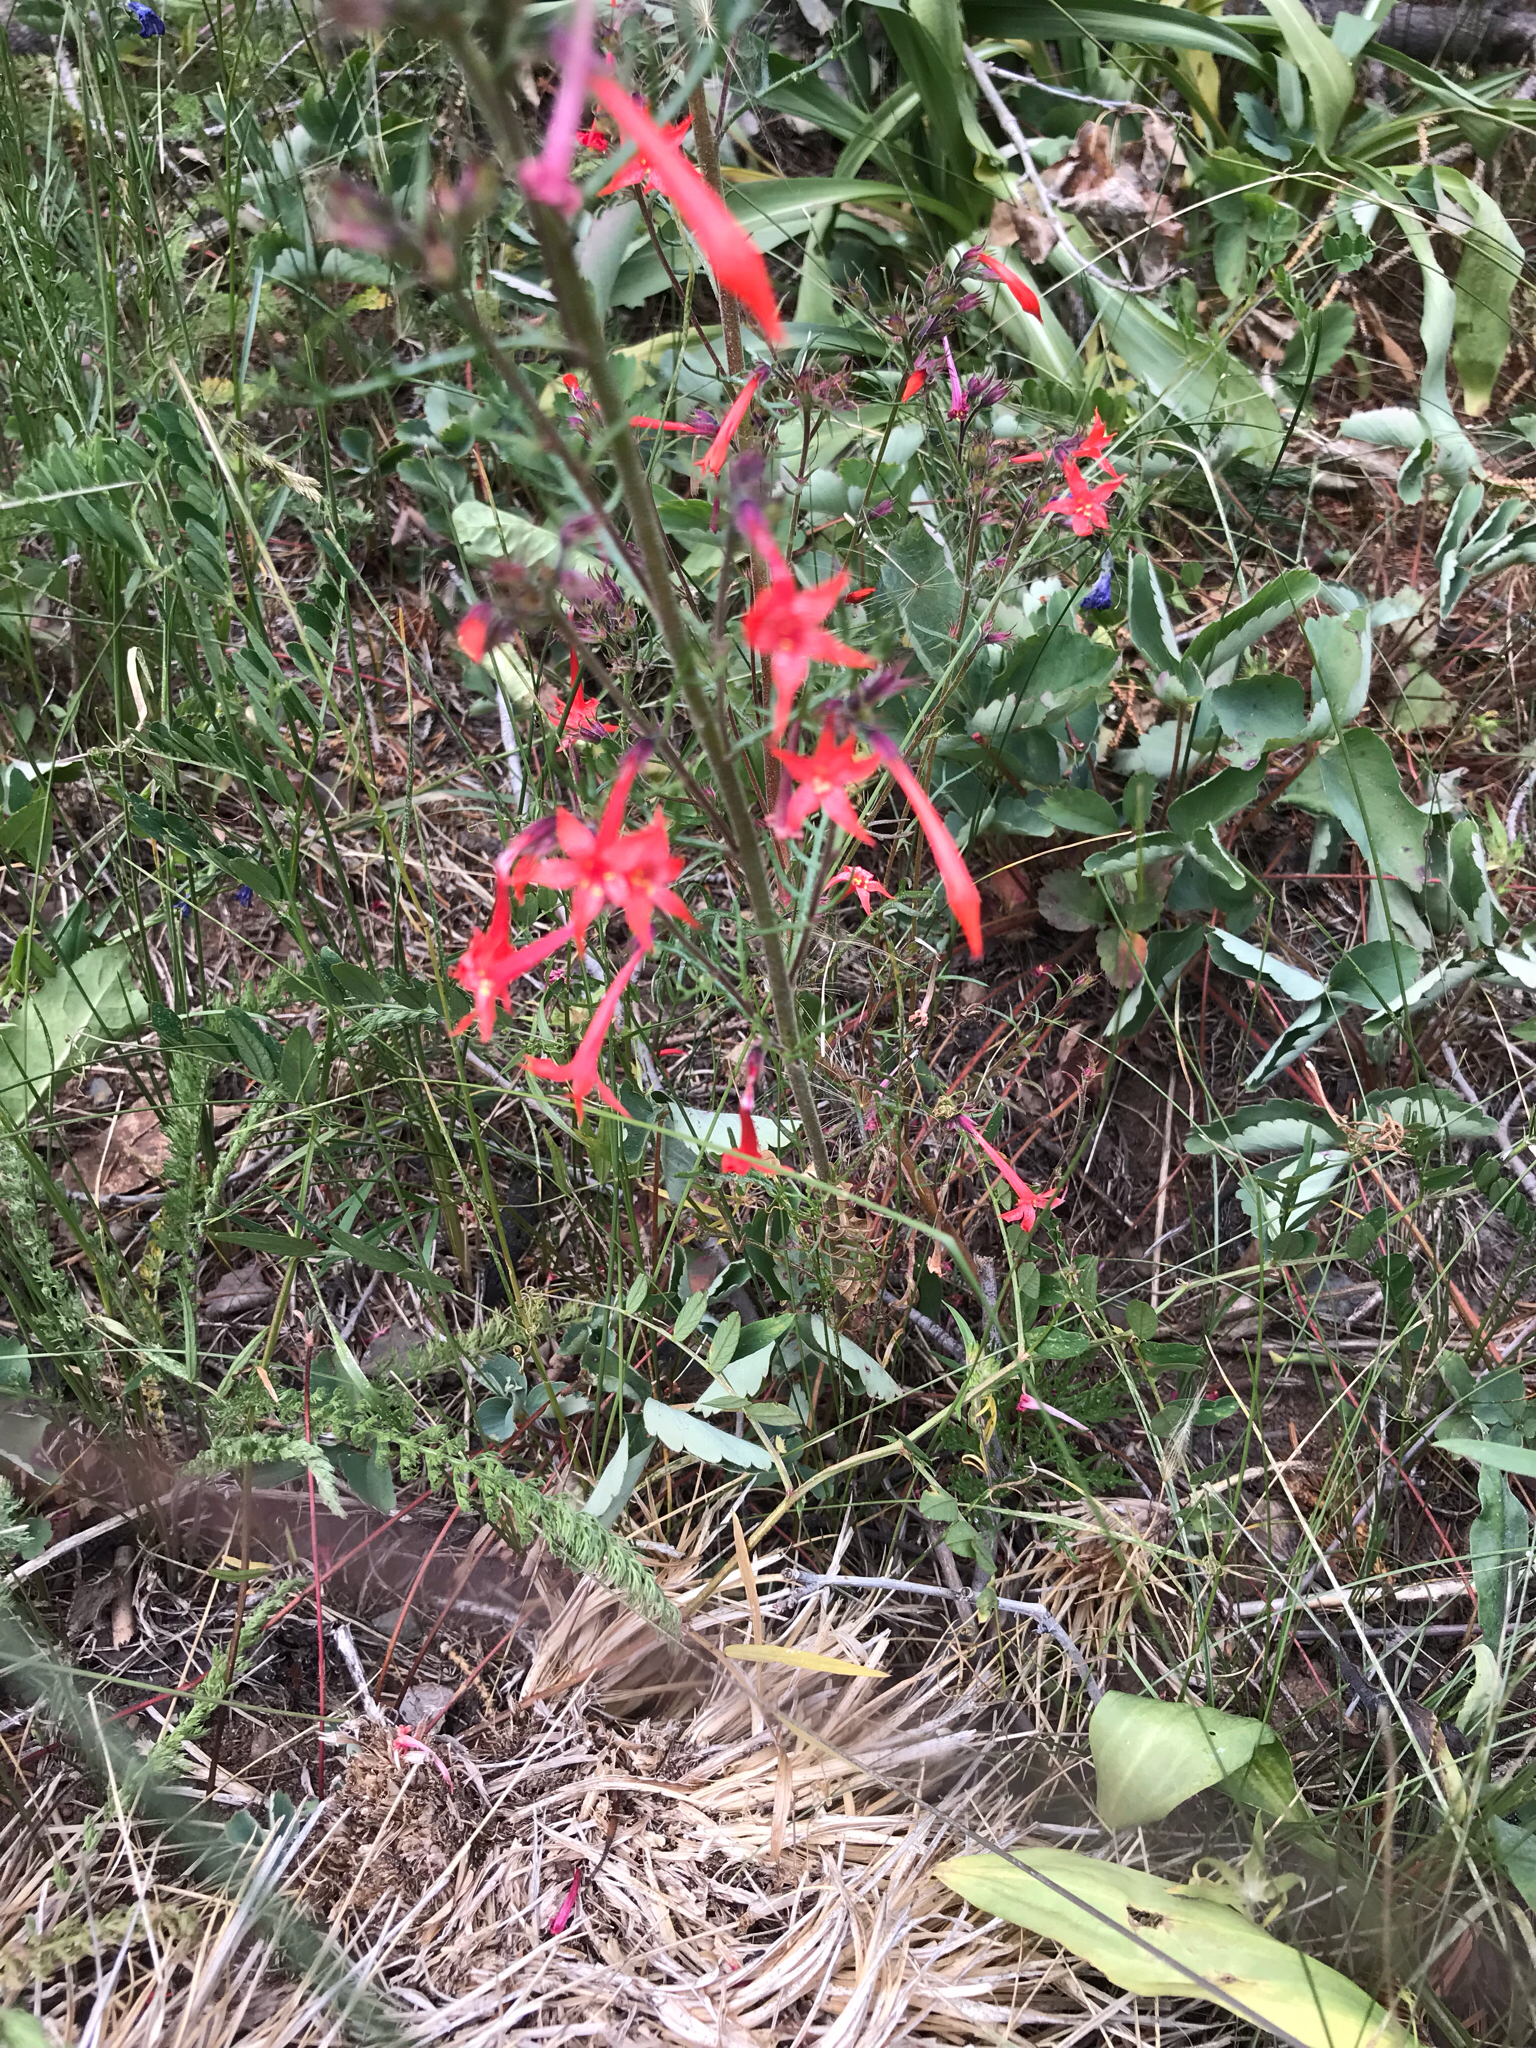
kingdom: Plantae
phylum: Tracheophyta
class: Magnoliopsida
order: Ericales
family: Polemoniaceae
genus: Ipomopsis
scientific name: Ipomopsis aggregata
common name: Scarlet gilia
